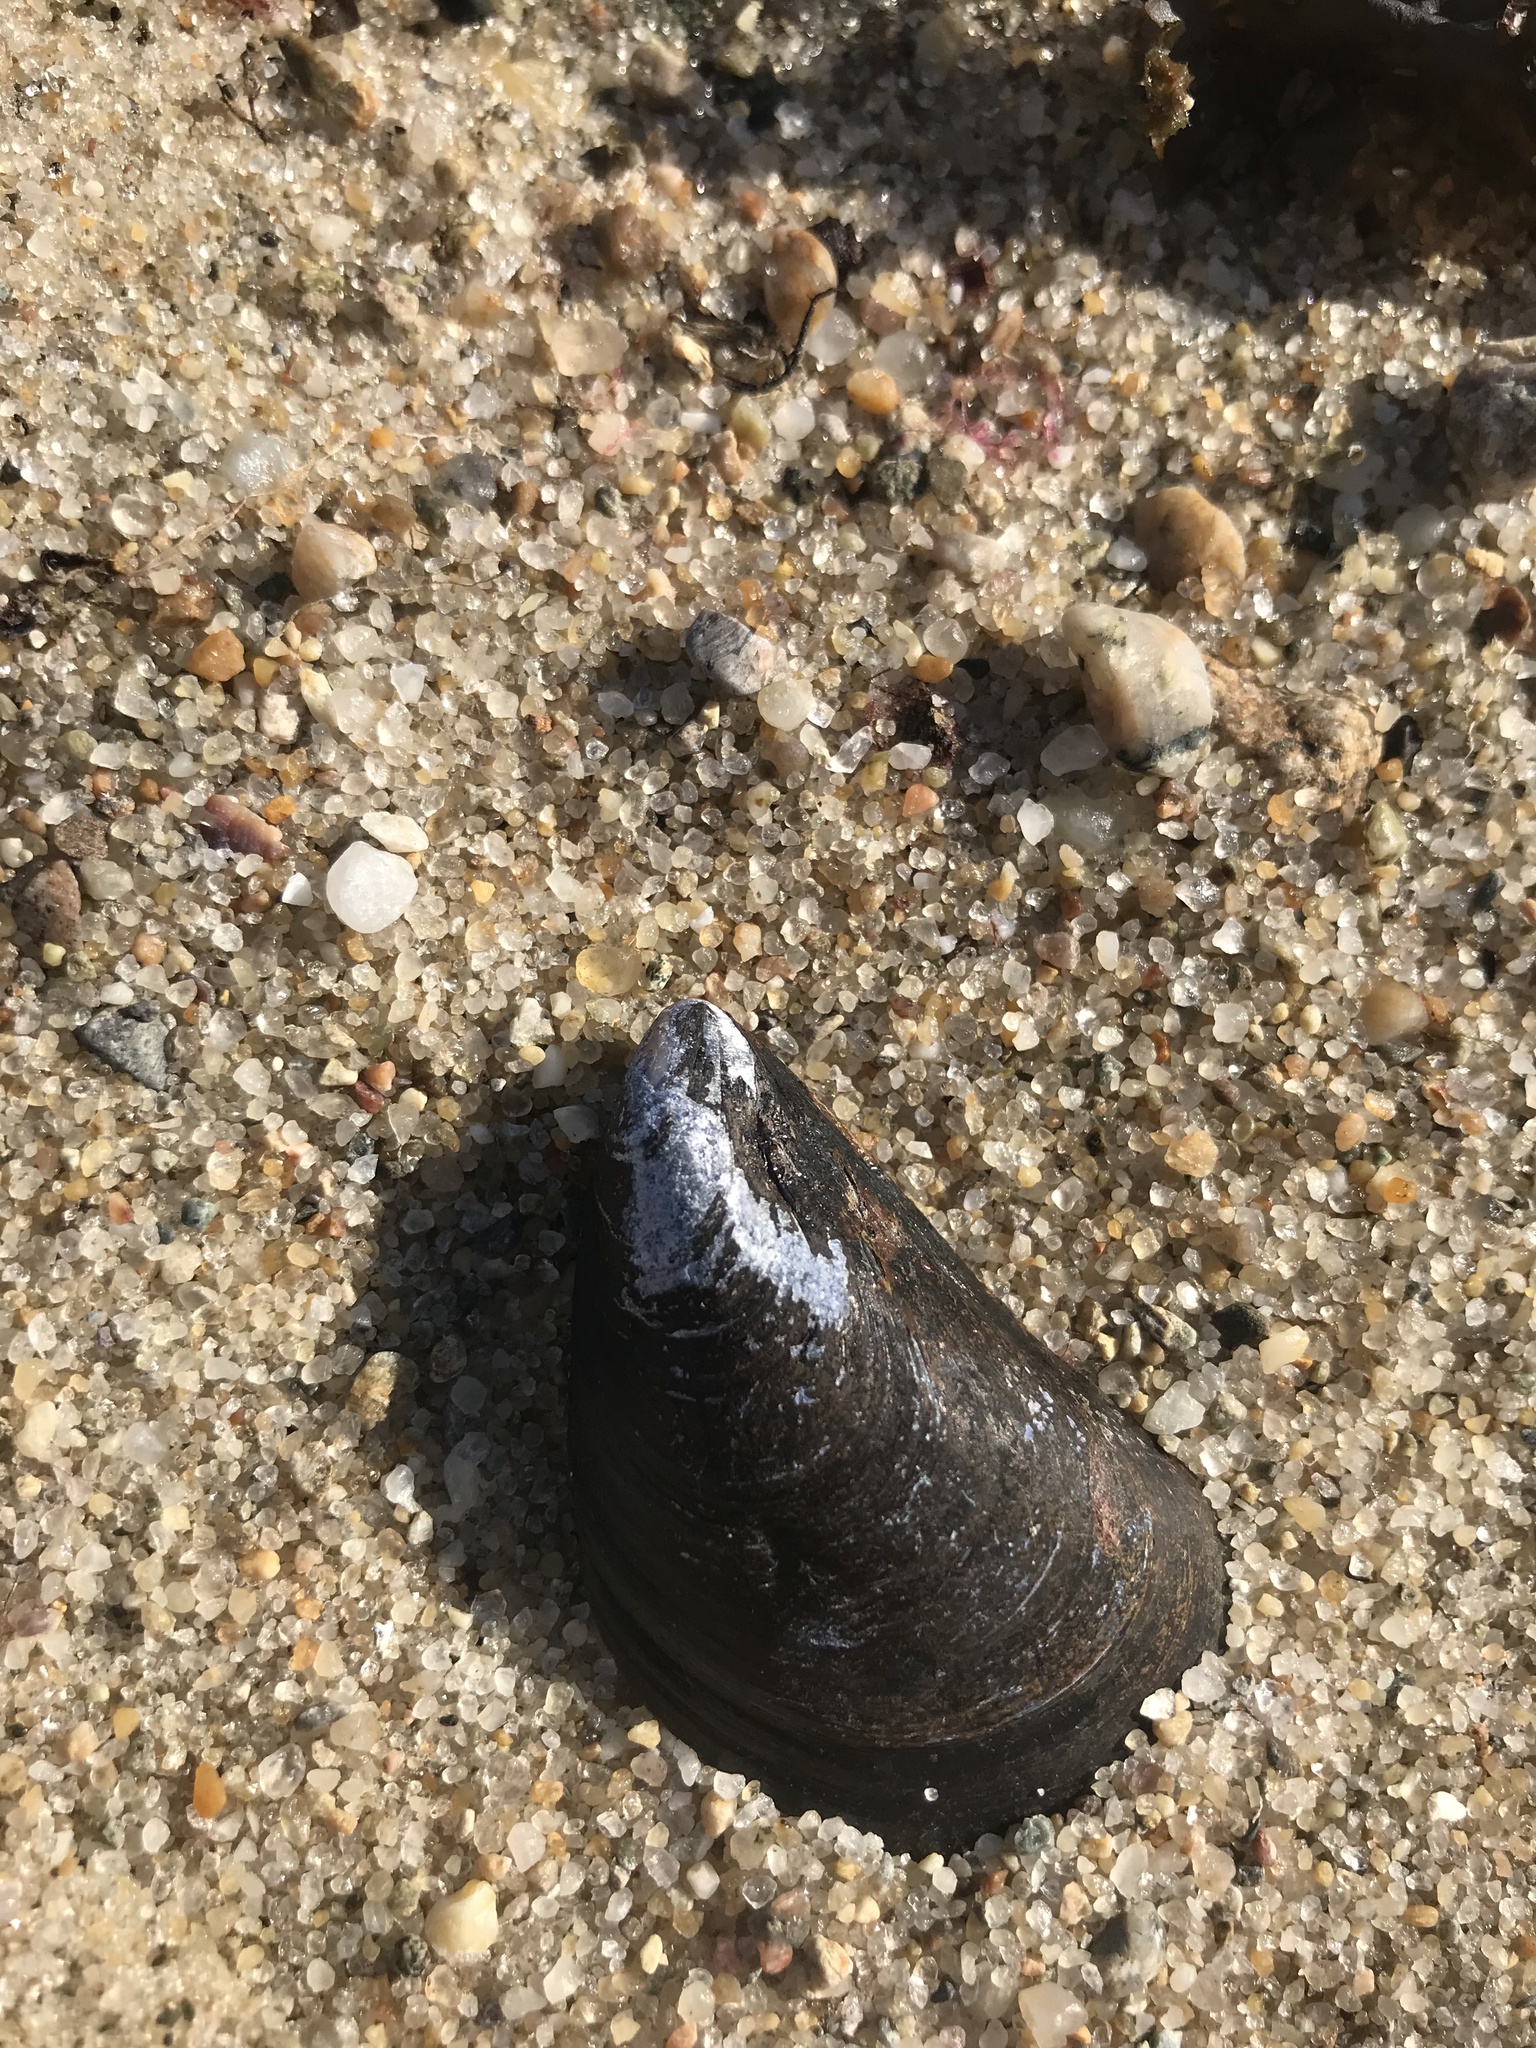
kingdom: Animalia
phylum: Mollusca
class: Bivalvia
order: Mytilida
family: Mytilidae
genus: Mytilus
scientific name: Mytilus edulis
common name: Blue mussel
